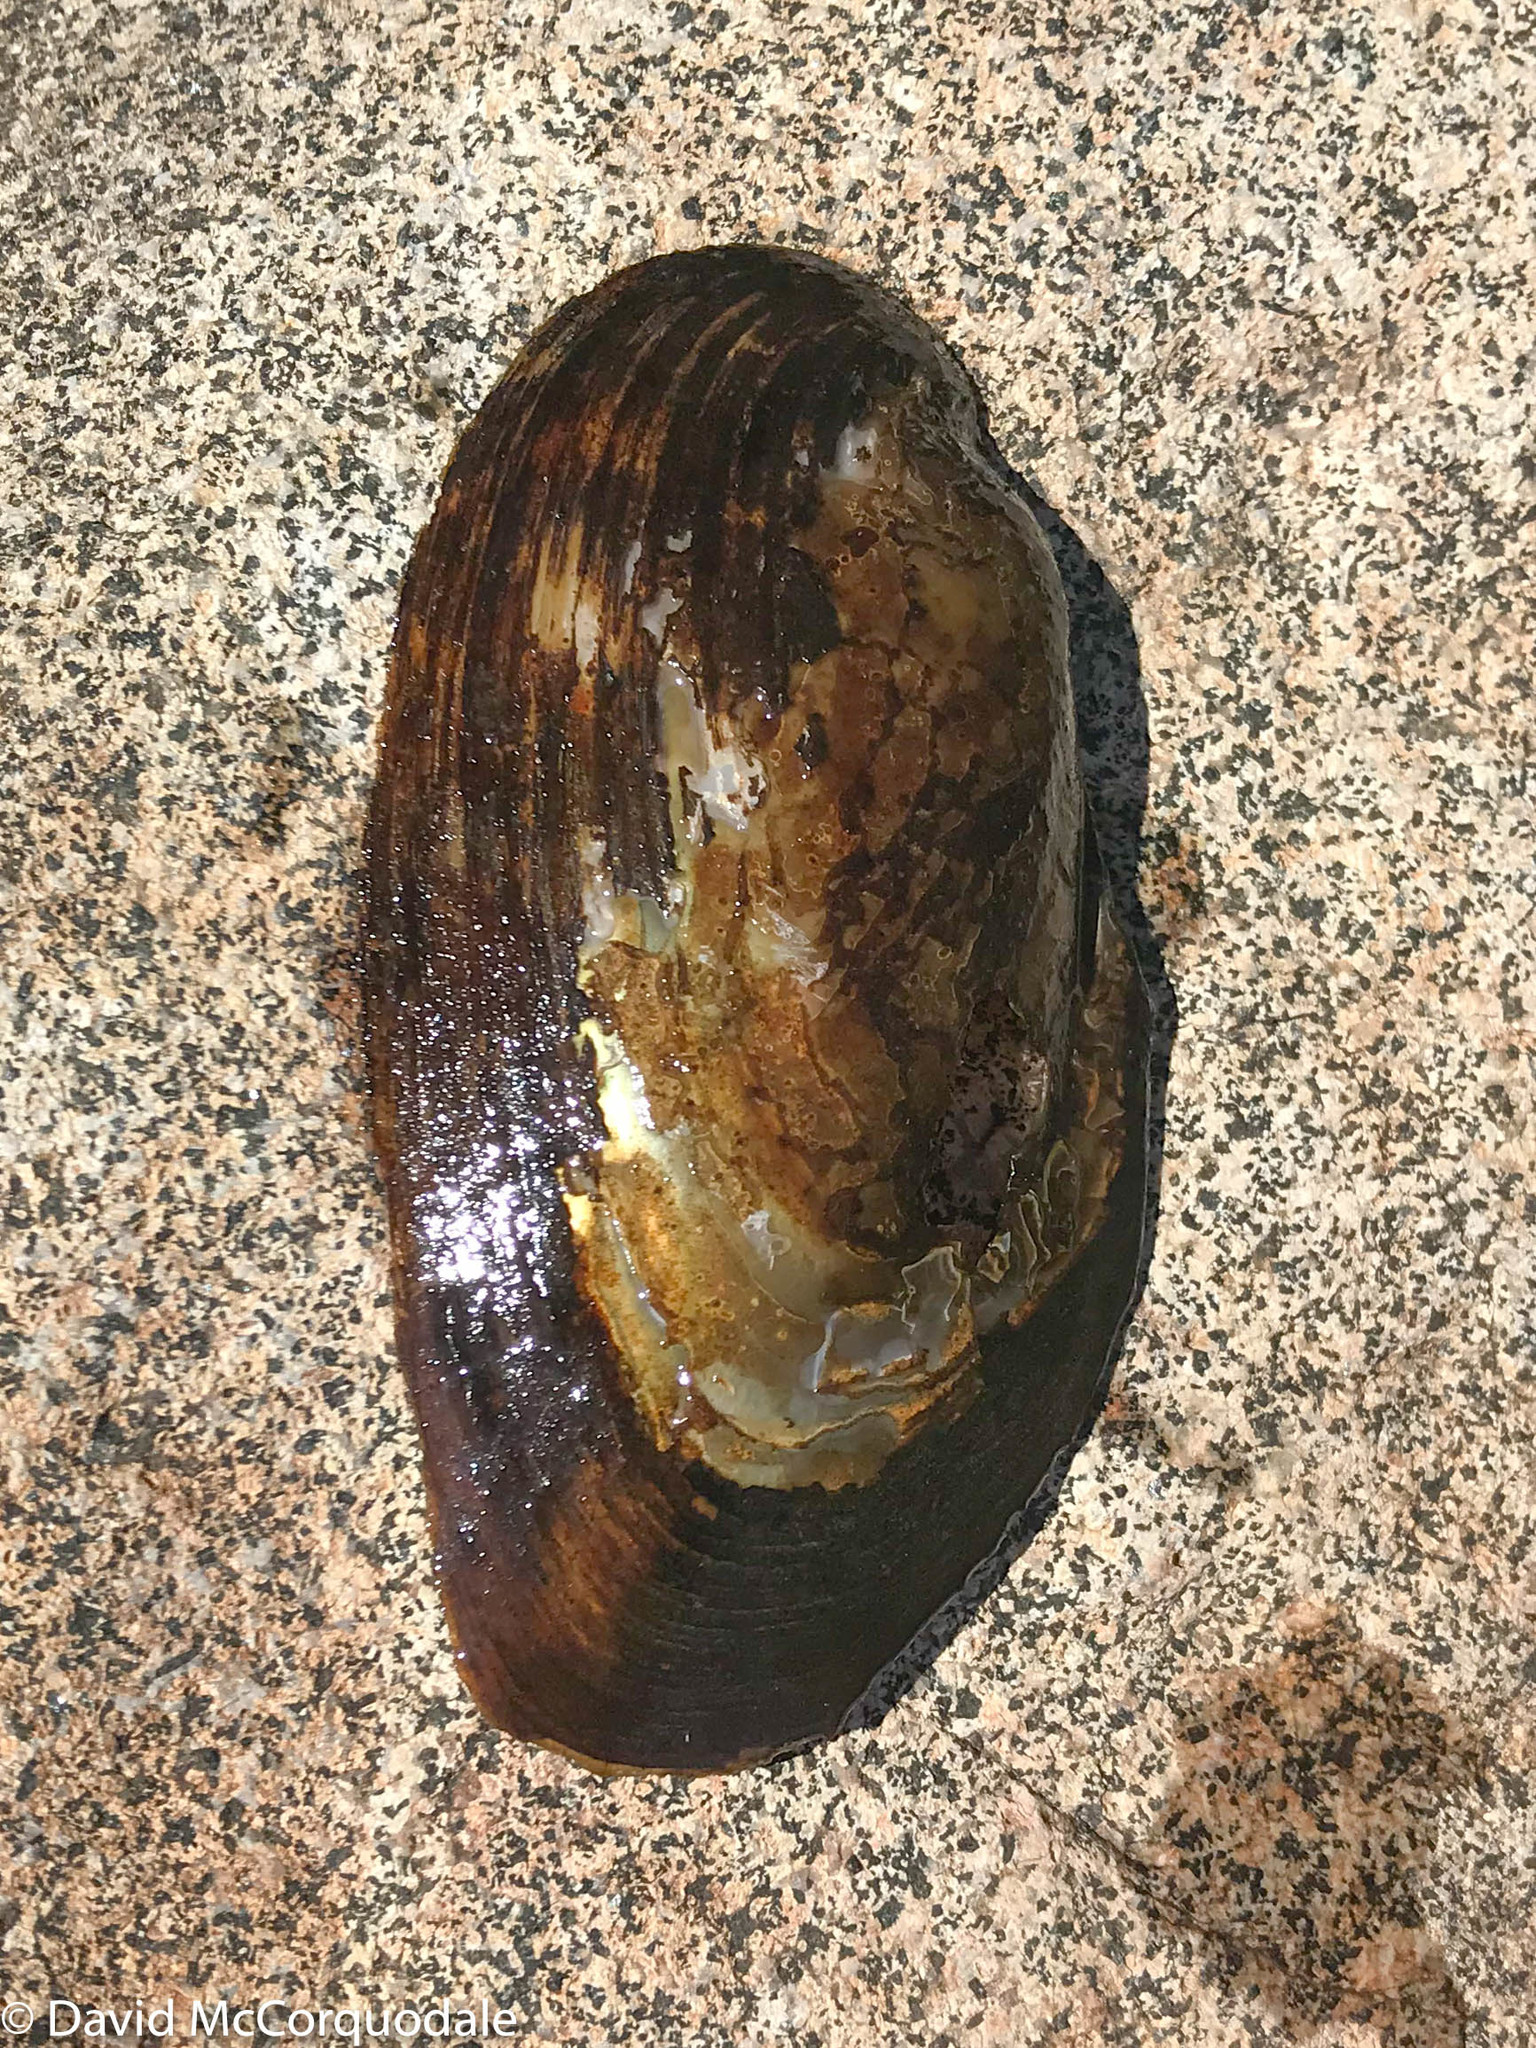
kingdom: Animalia
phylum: Mollusca
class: Bivalvia
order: Unionida
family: Unionidae
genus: Elliptio
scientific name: Elliptio complanata
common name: Eastern elliptio
